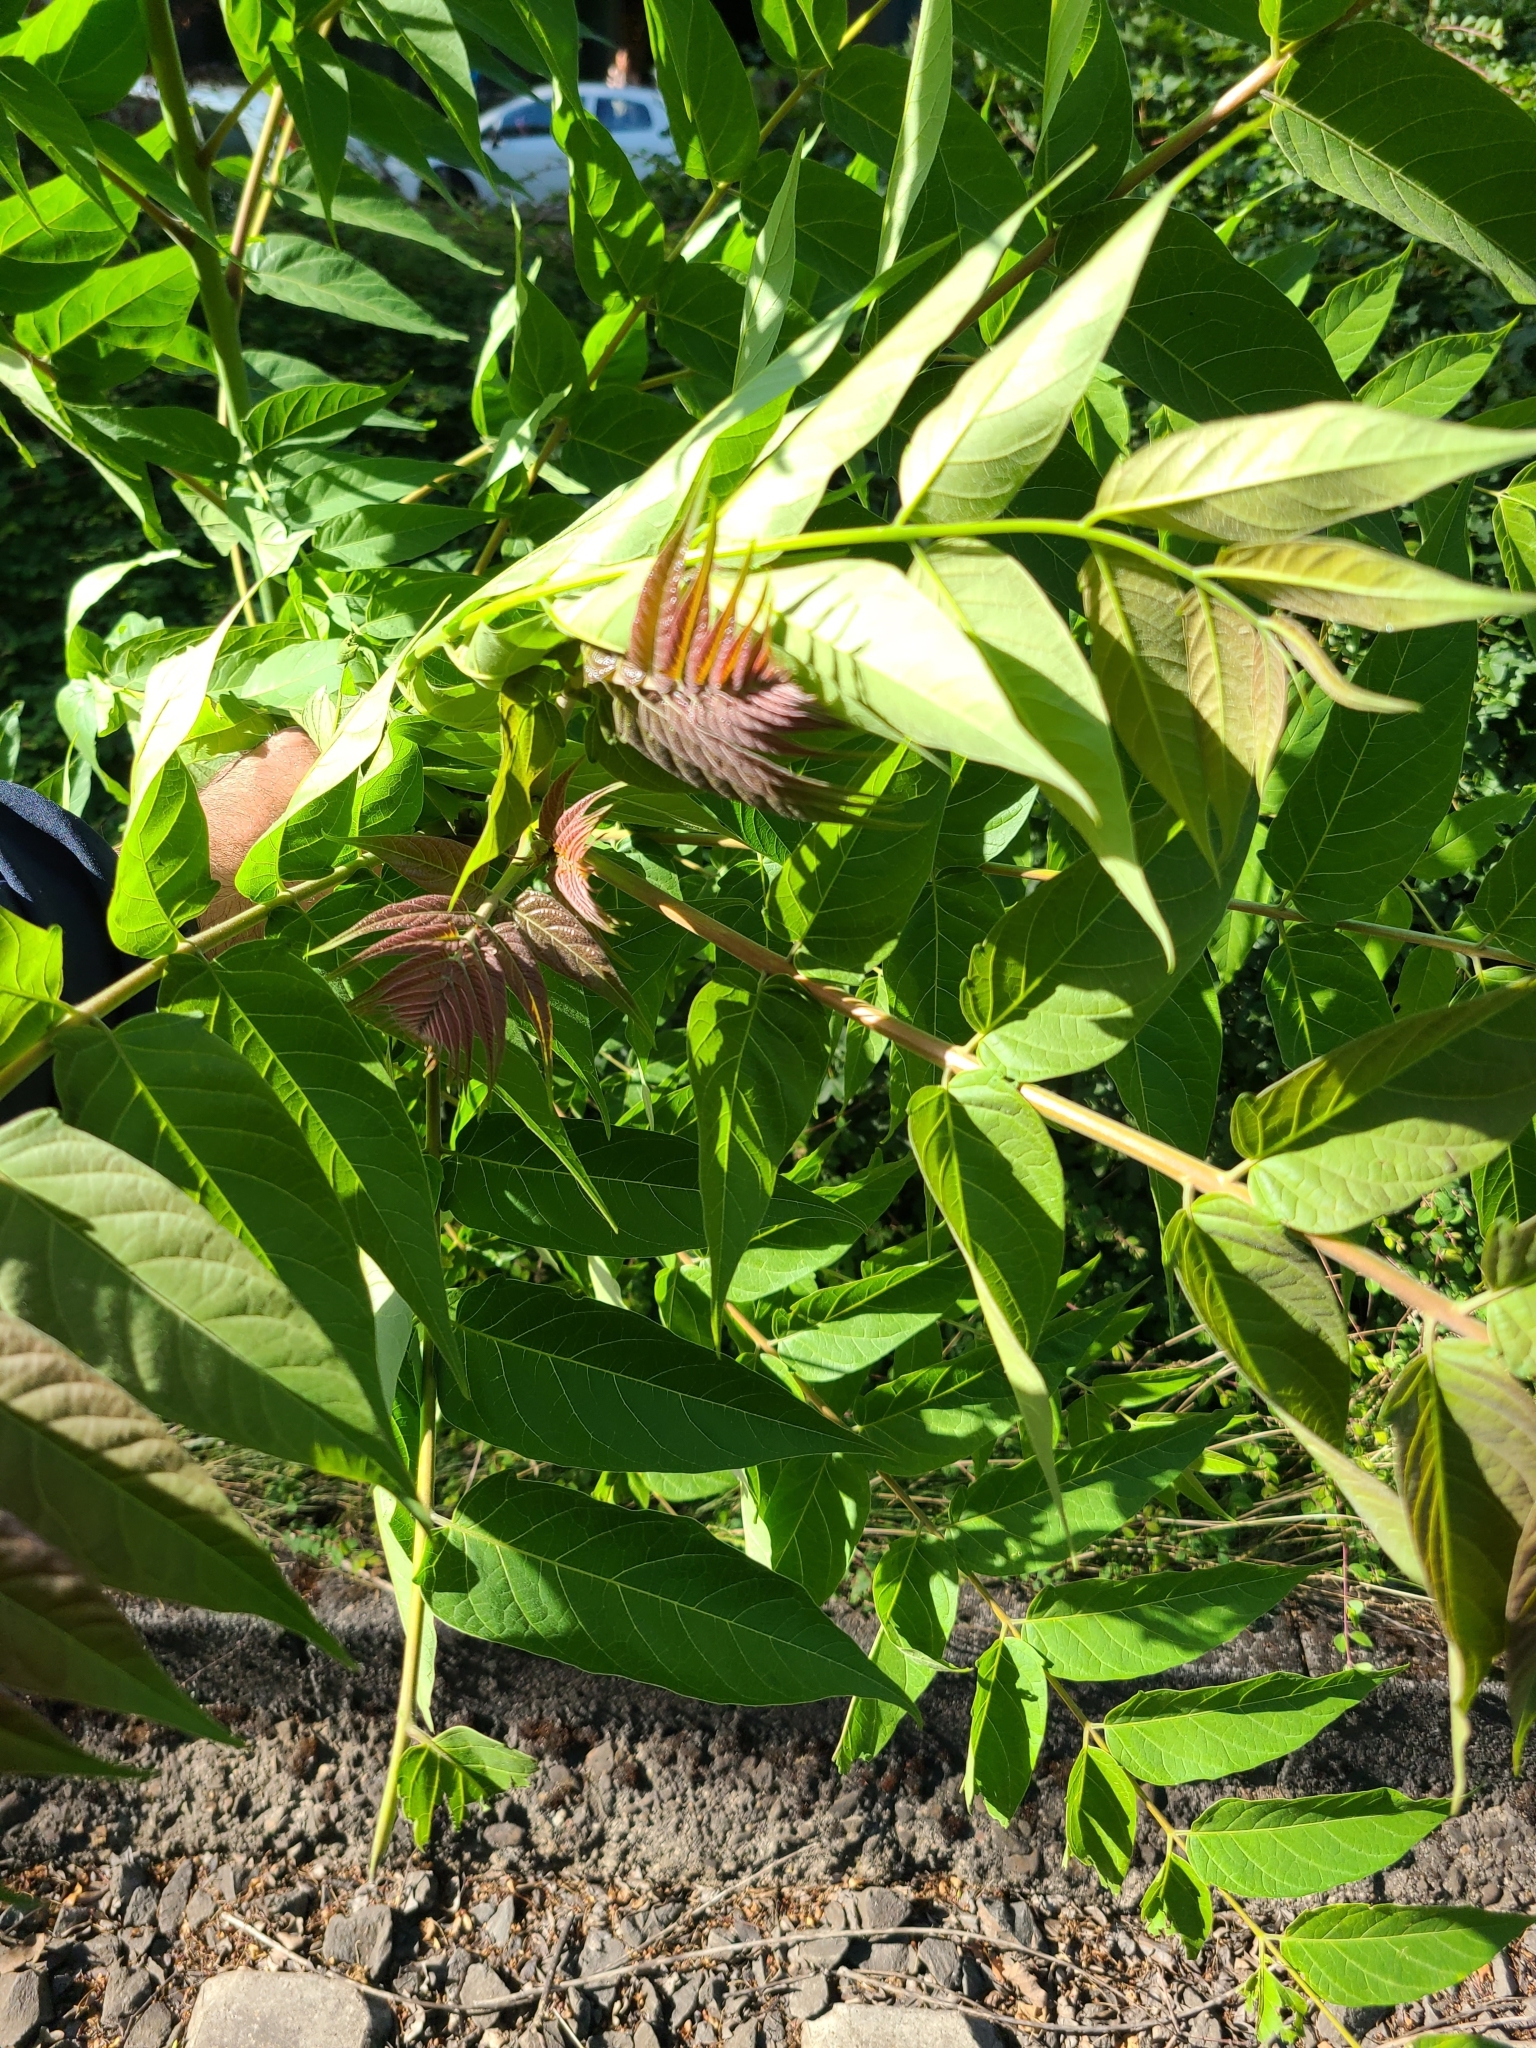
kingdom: Plantae
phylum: Tracheophyta
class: Magnoliopsida
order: Sapindales
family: Simaroubaceae
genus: Ailanthus
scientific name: Ailanthus altissima
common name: Tree-of-heaven
